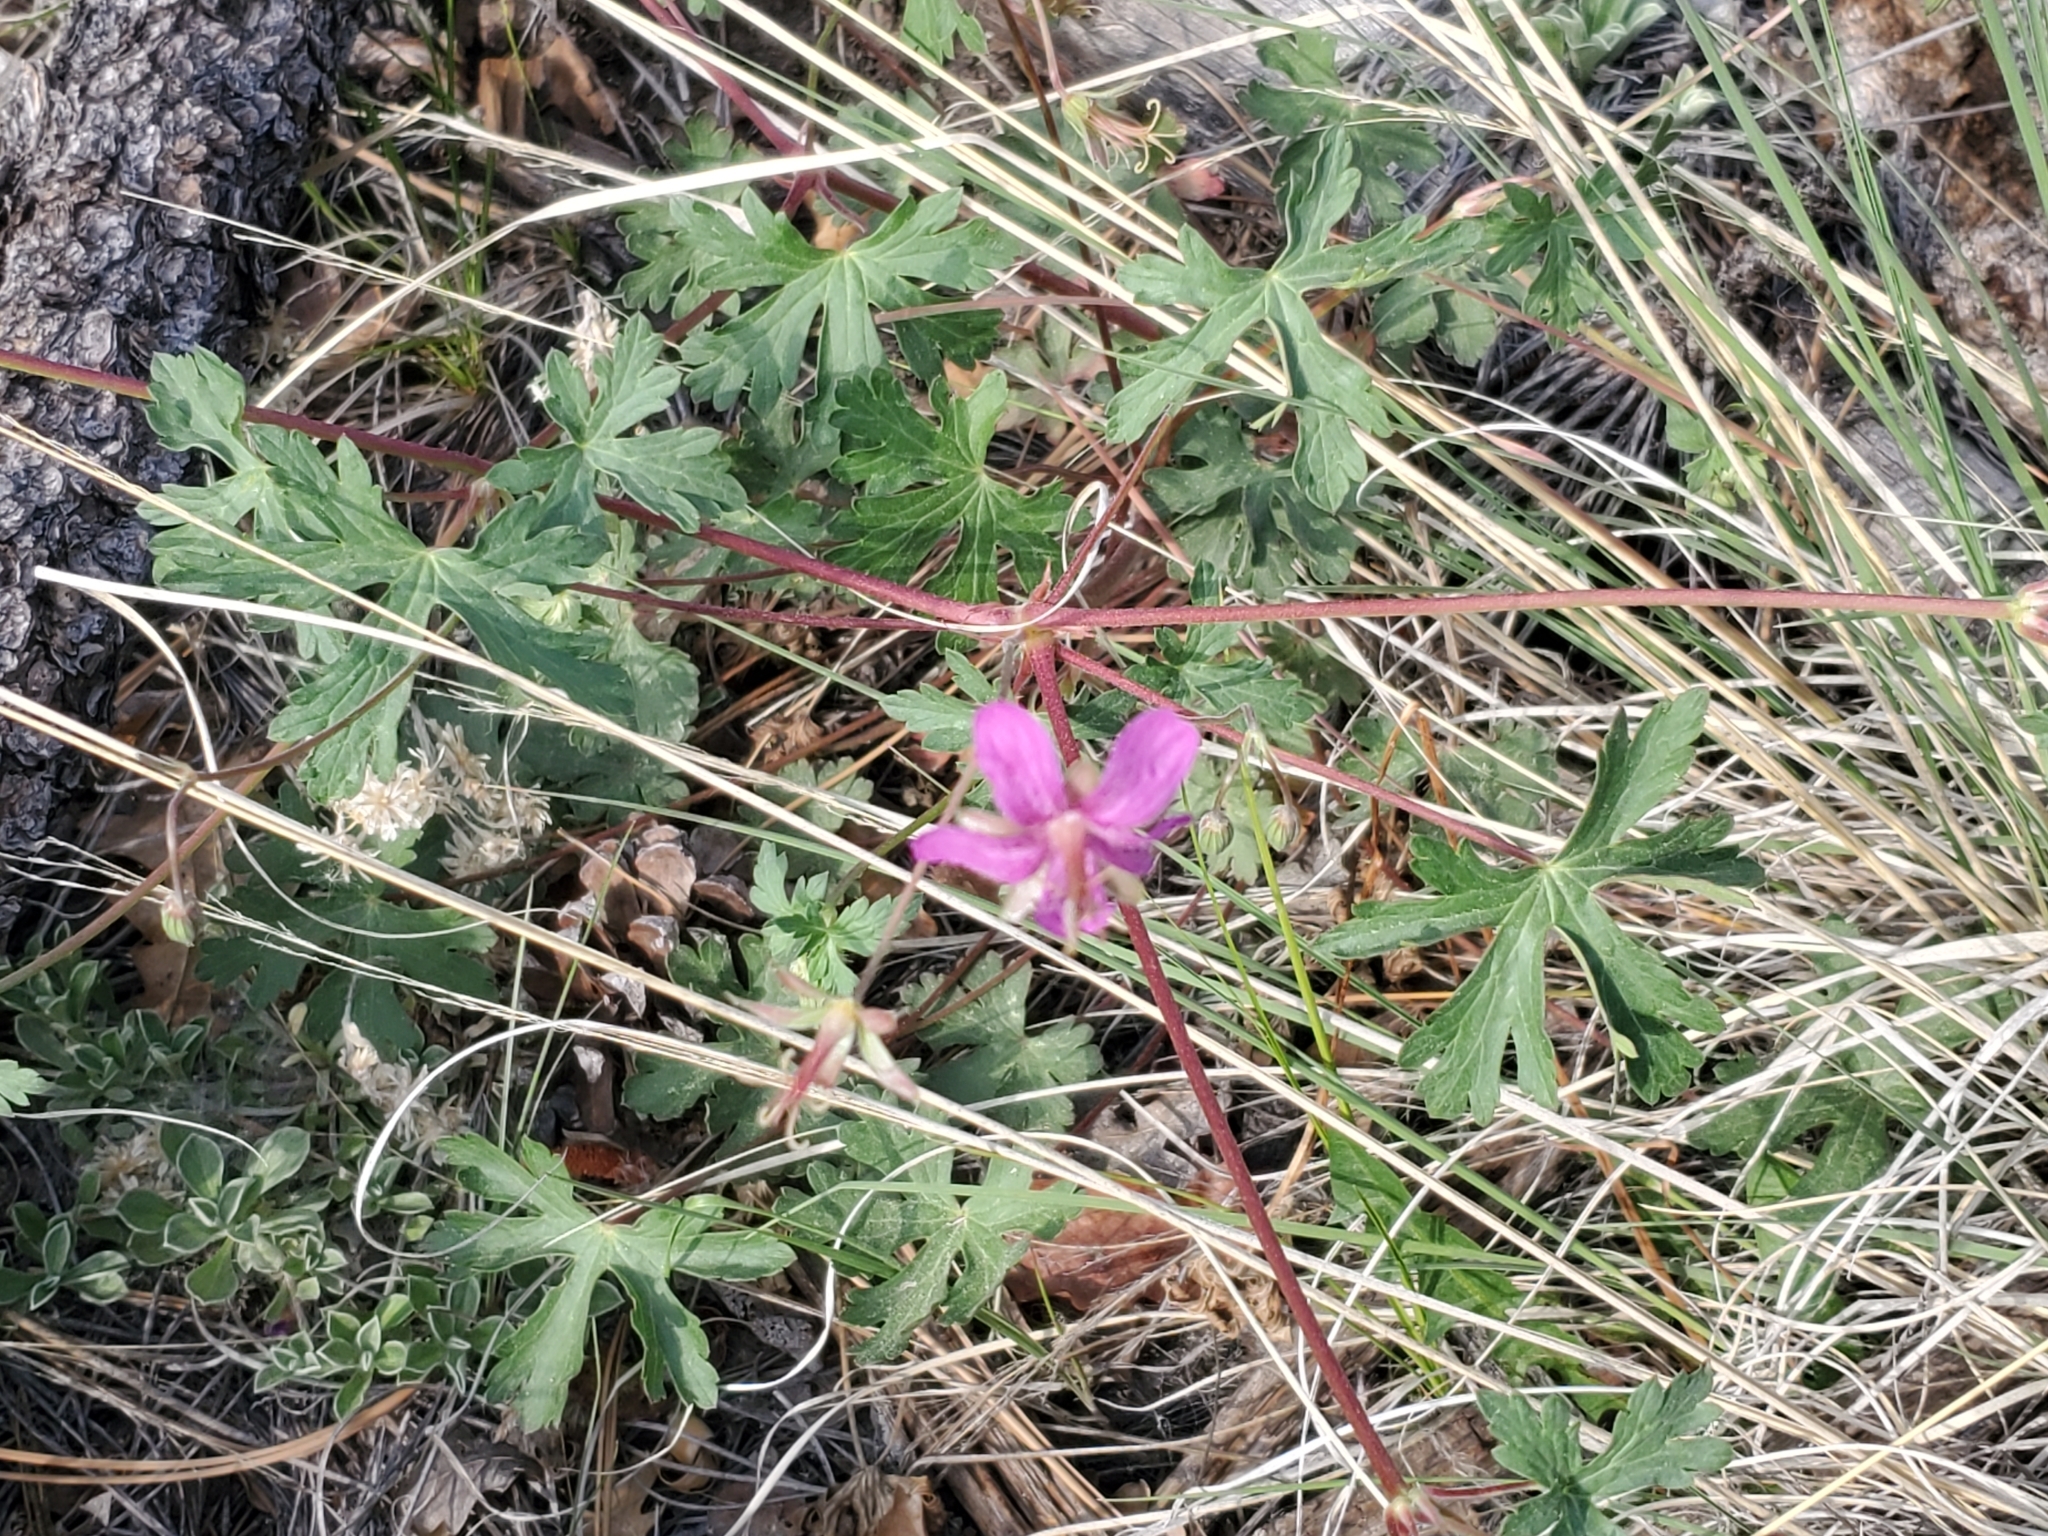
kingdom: Plantae
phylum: Tracheophyta
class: Magnoliopsida
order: Geraniales
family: Geraniaceae
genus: Geranium
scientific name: Geranium caespitosum
